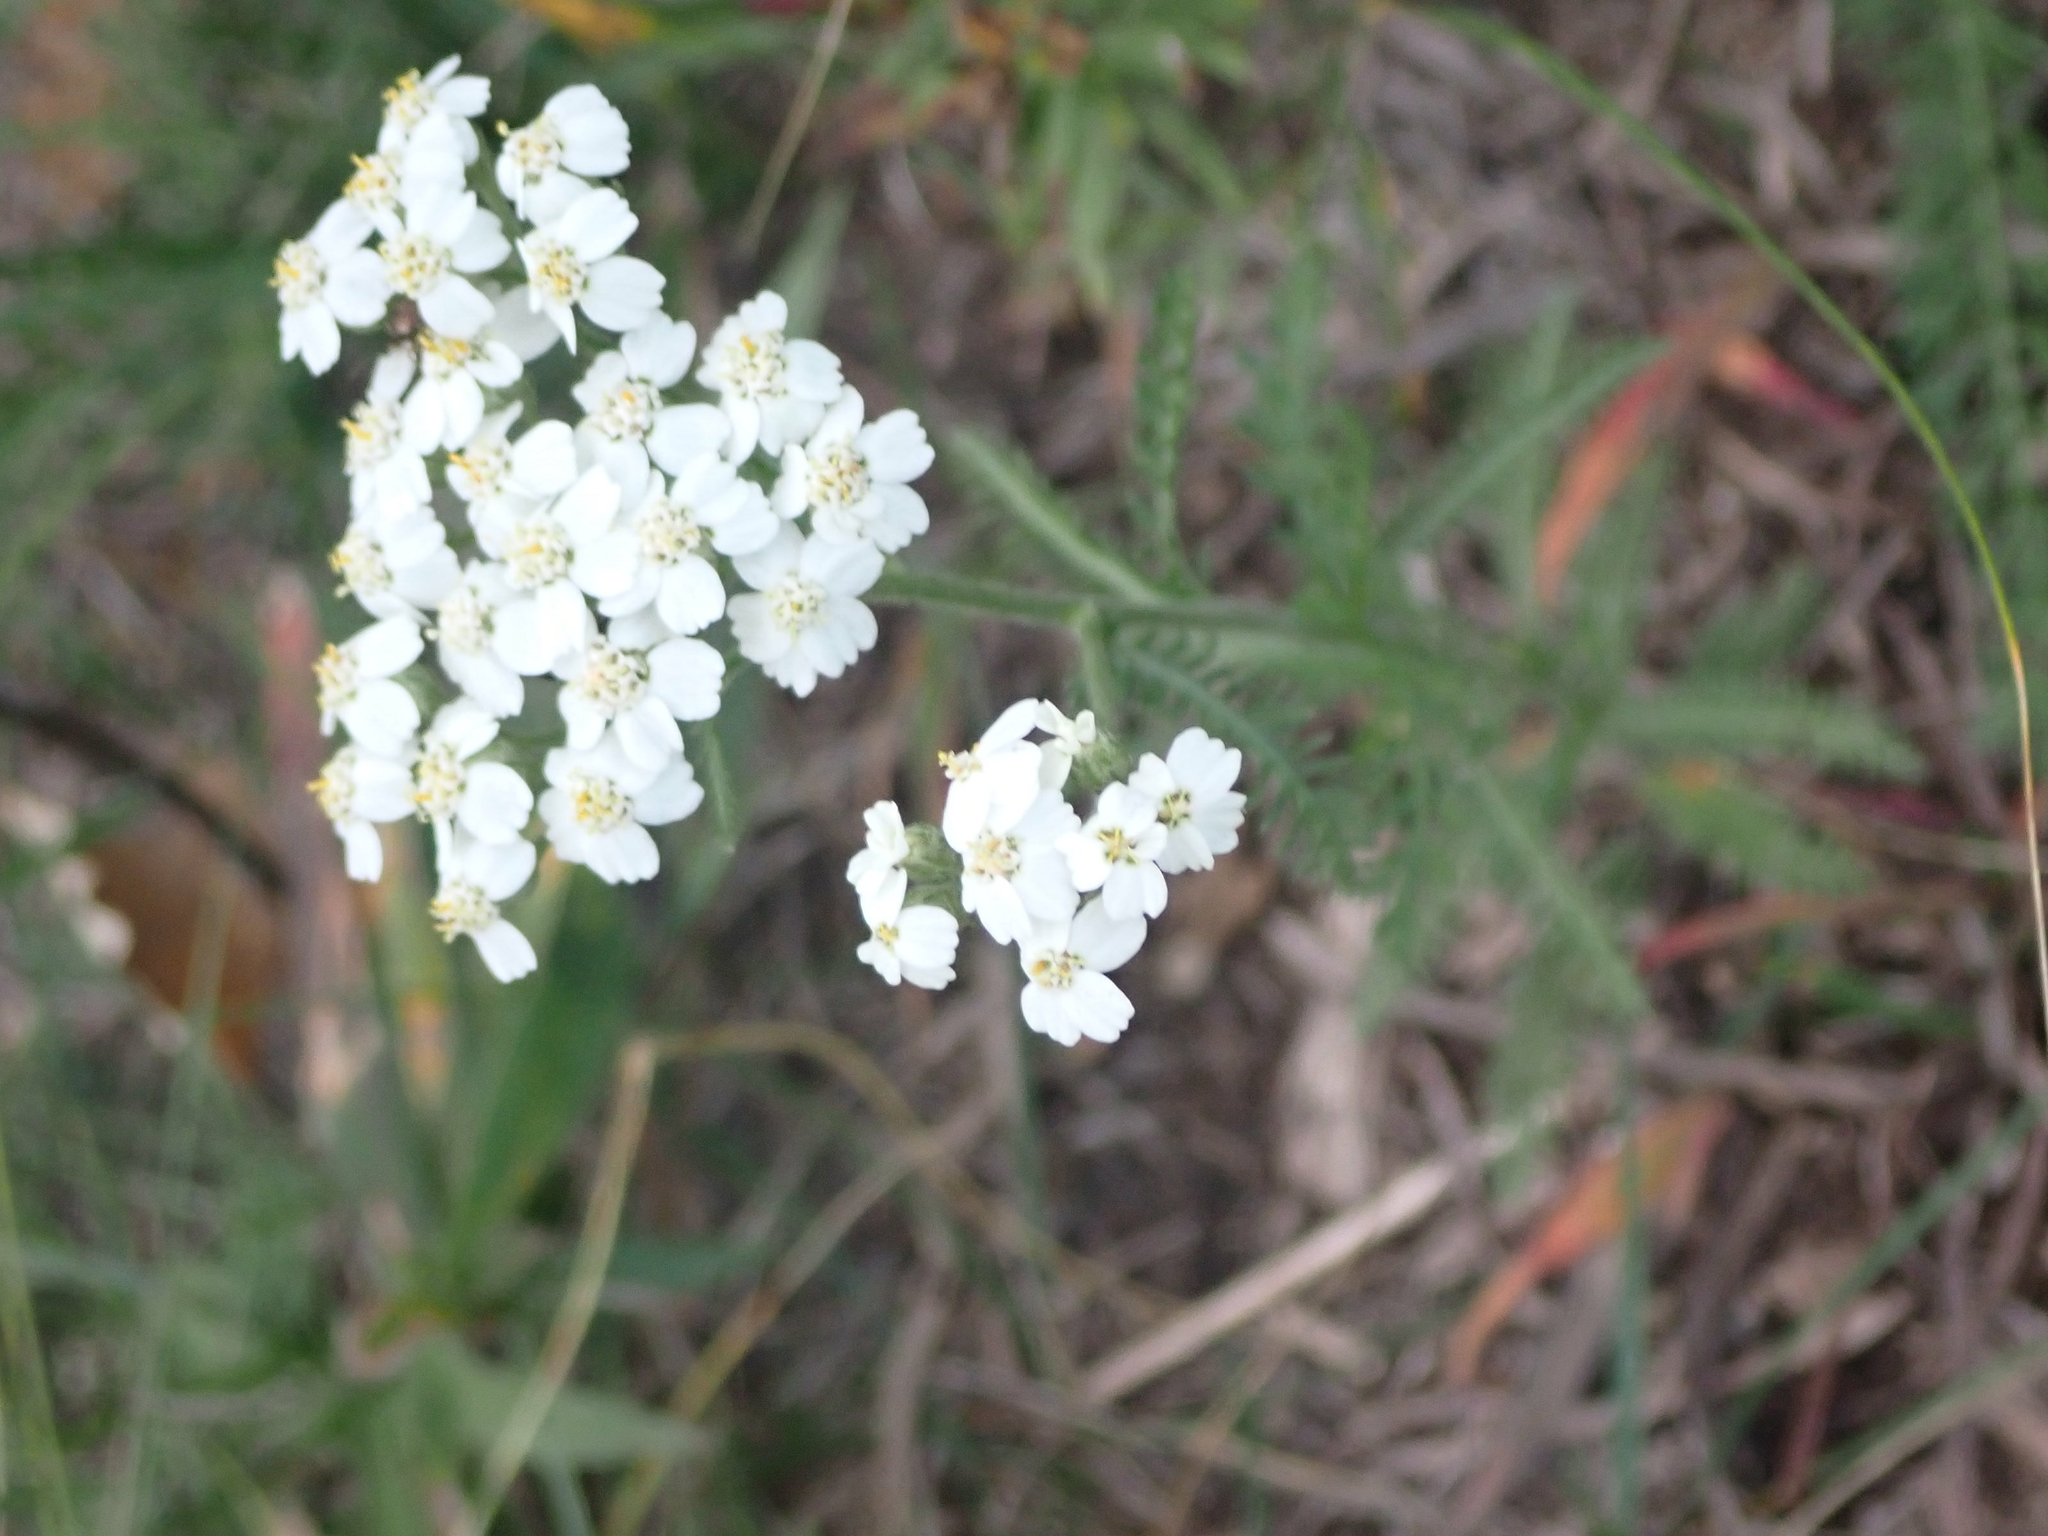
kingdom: Plantae
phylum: Tracheophyta
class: Magnoliopsida
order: Asterales
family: Asteraceae
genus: Achillea
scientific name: Achillea millefolium
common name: Yarrow
